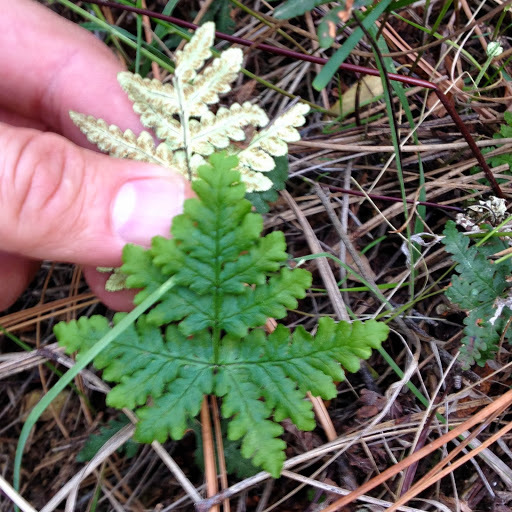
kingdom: Plantae
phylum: Tracheophyta
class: Polypodiopsida
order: Polypodiales
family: Pteridaceae
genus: Pentagramma
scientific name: Pentagramma triangularis
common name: Gold fern
